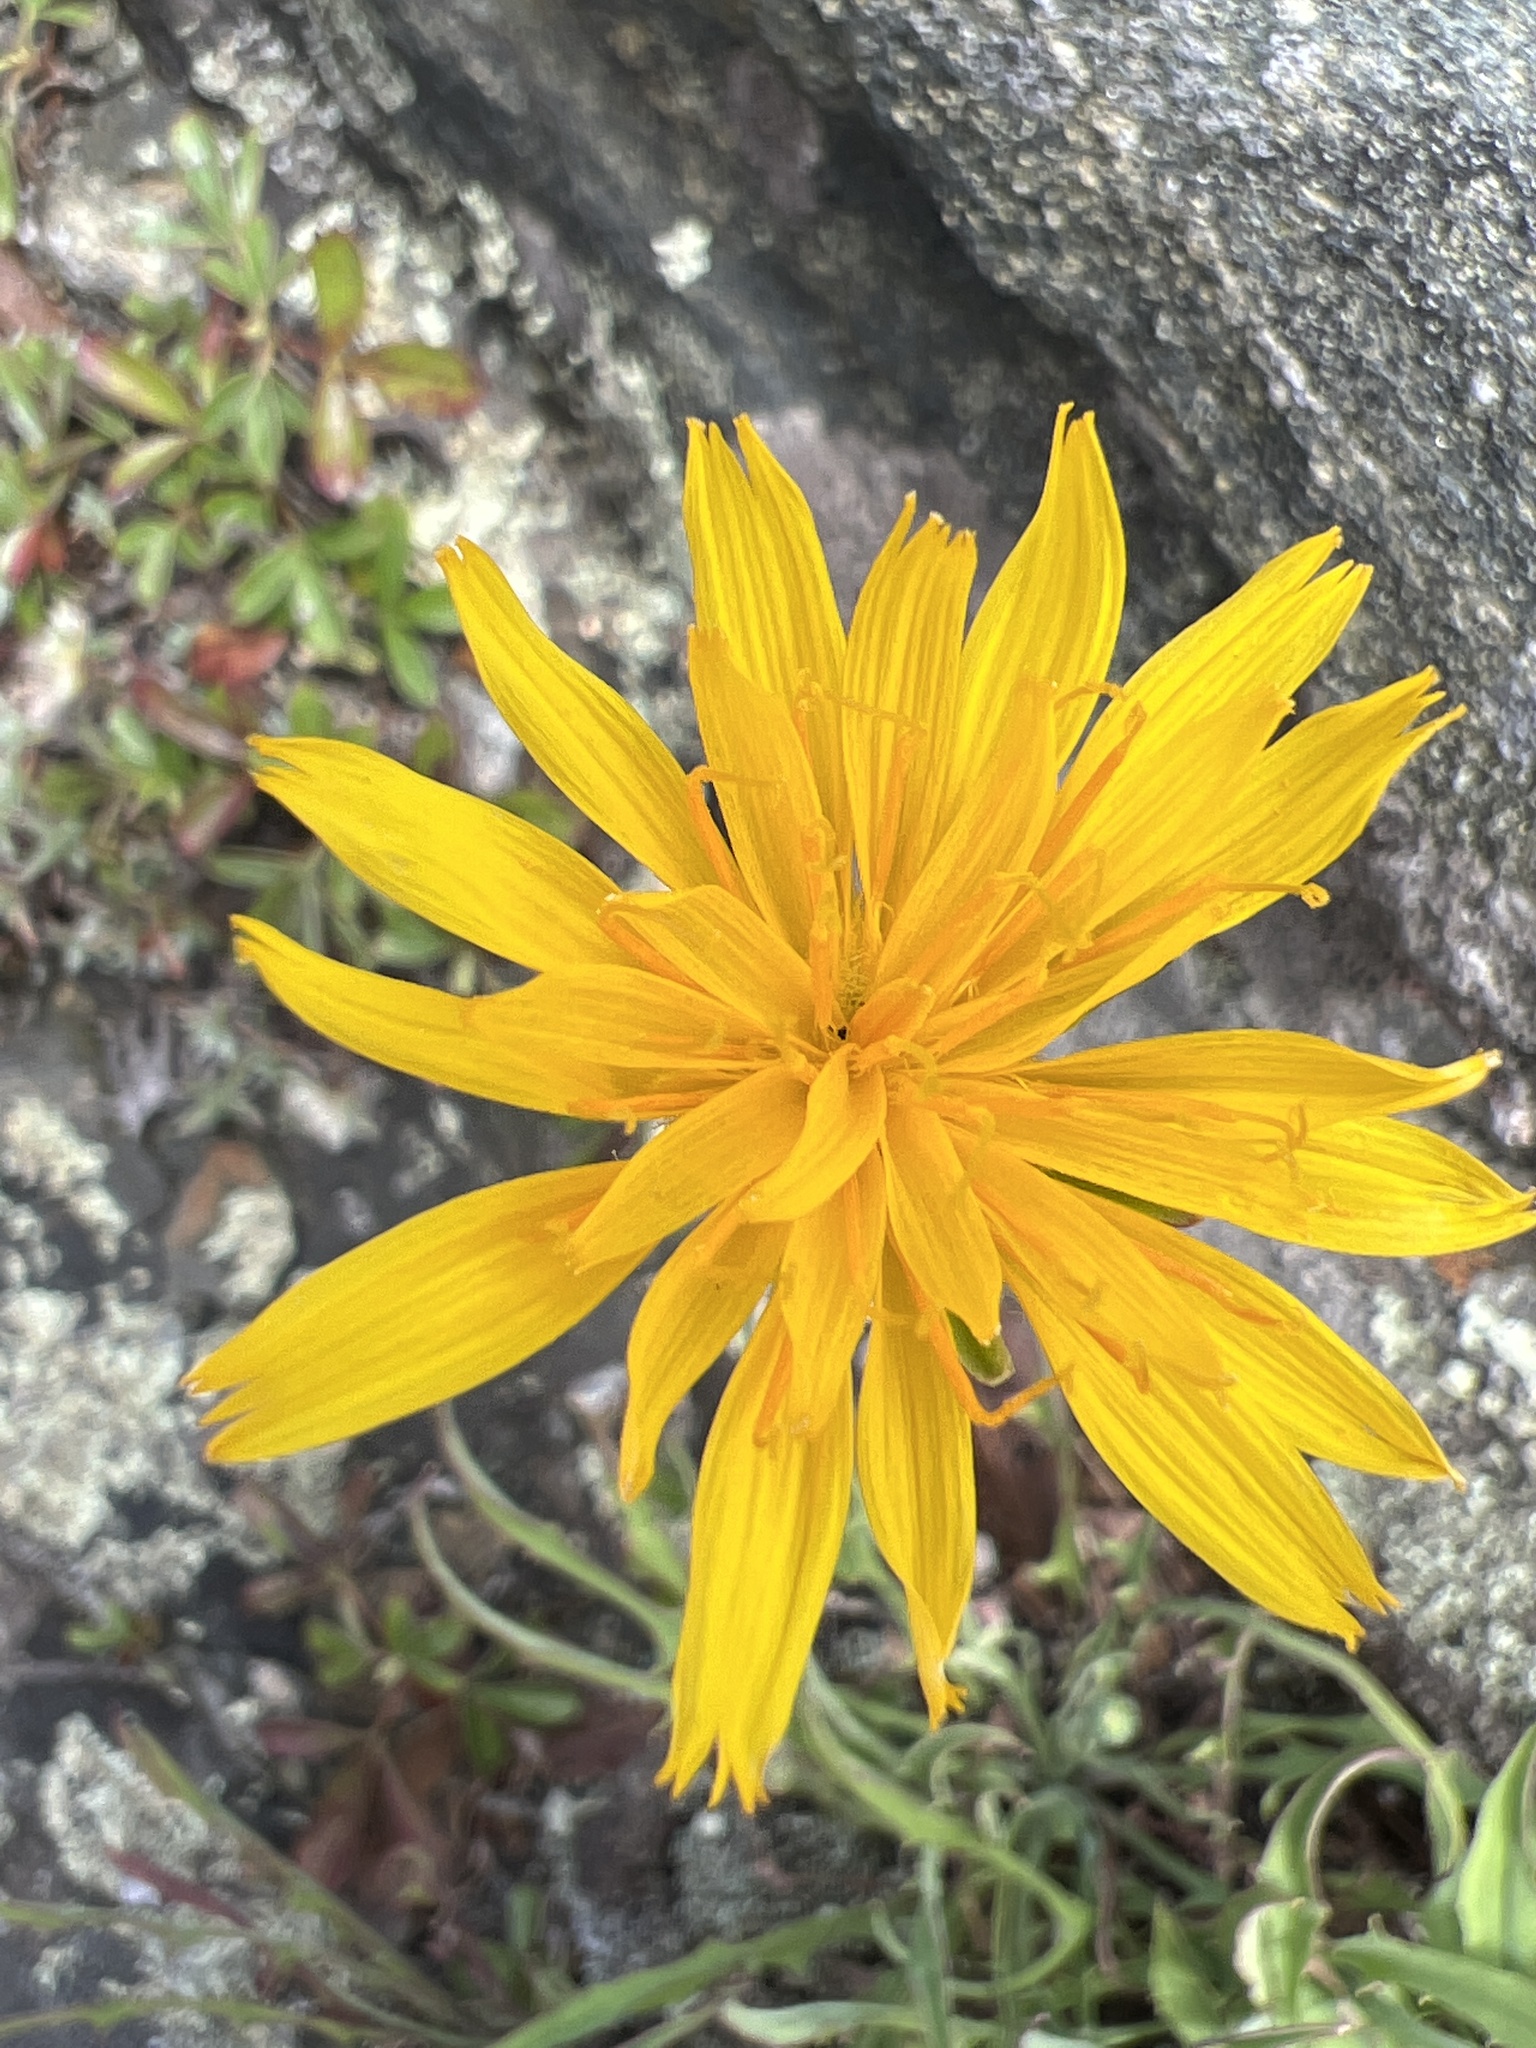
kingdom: Plantae
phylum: Tracheophyta
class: Magnoliopsida
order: Asterales
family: Asteraceae
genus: Krigia
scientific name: Krigia montana
